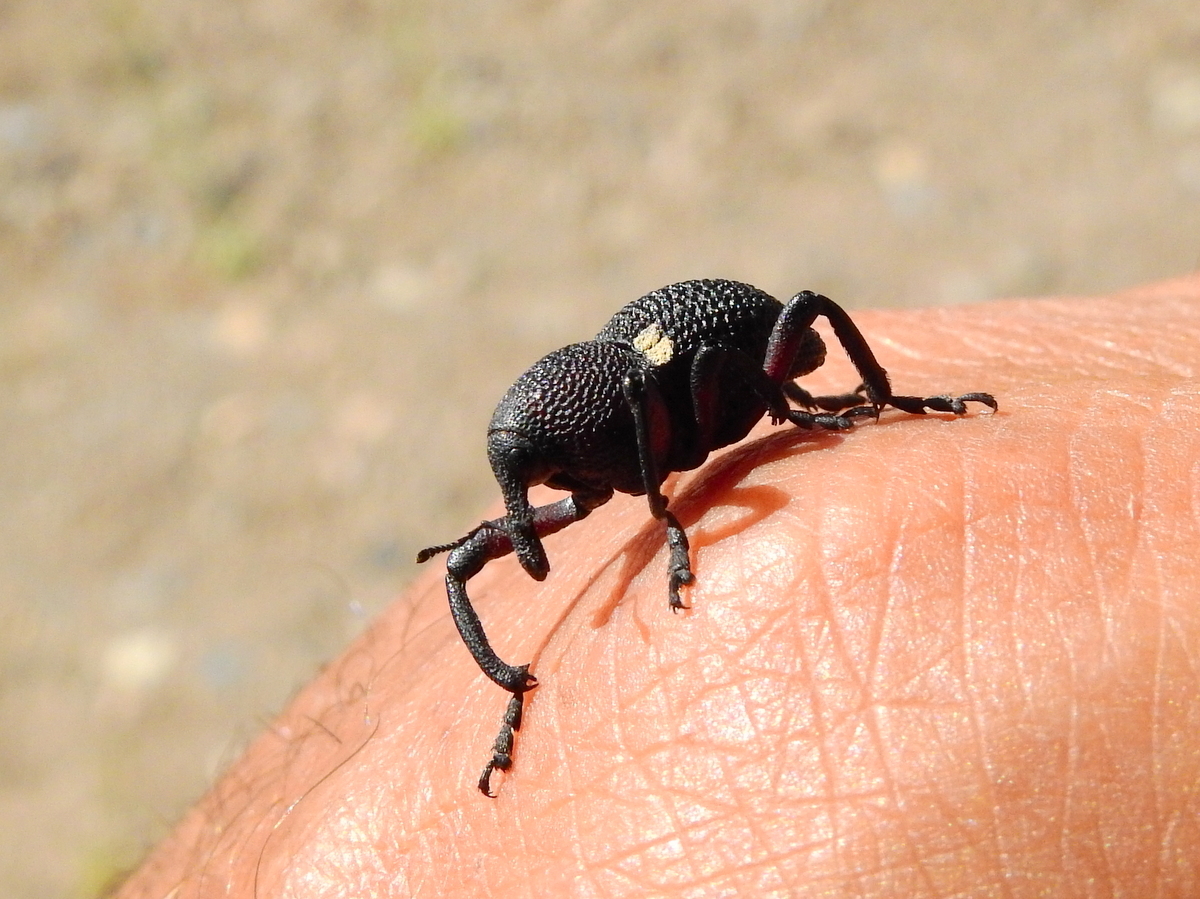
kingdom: Animalia
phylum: Arthropoda
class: Insecta
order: Coleoptera
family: Curculionidae
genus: Rhyephenes
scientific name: Rhyephenes gayi
